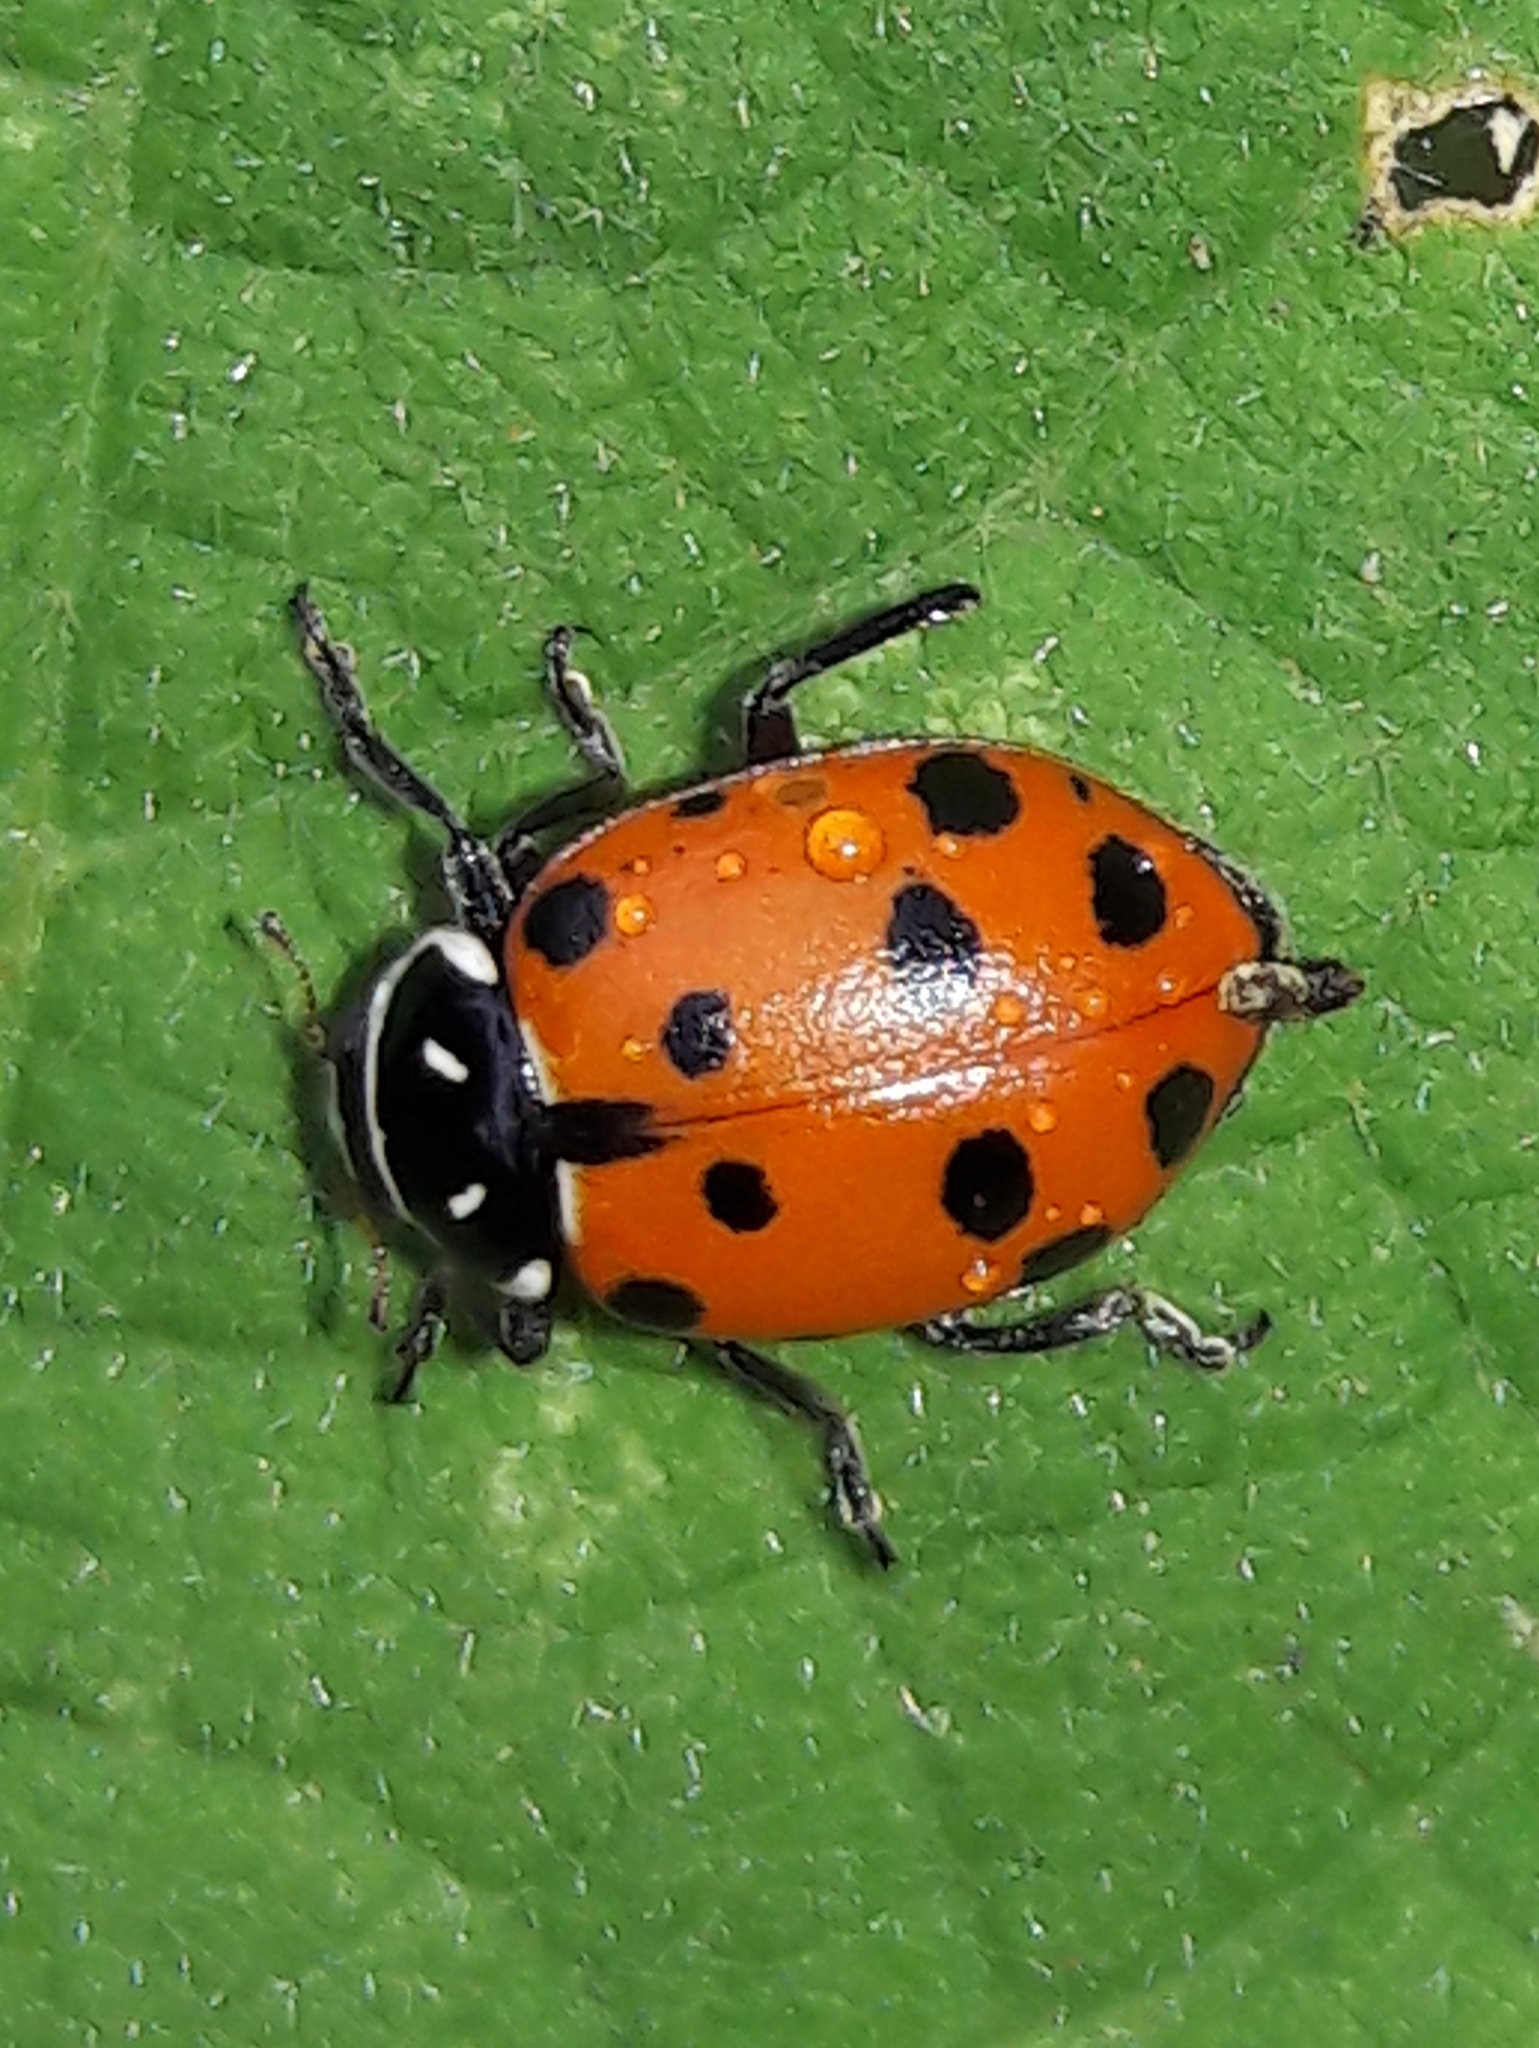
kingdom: Animalia
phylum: Arthropoda
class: Insecta
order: Coleoptera
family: Coccinellidae
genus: Hippodamia
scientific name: Hippodamia convergens
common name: Convergent lady beetle
